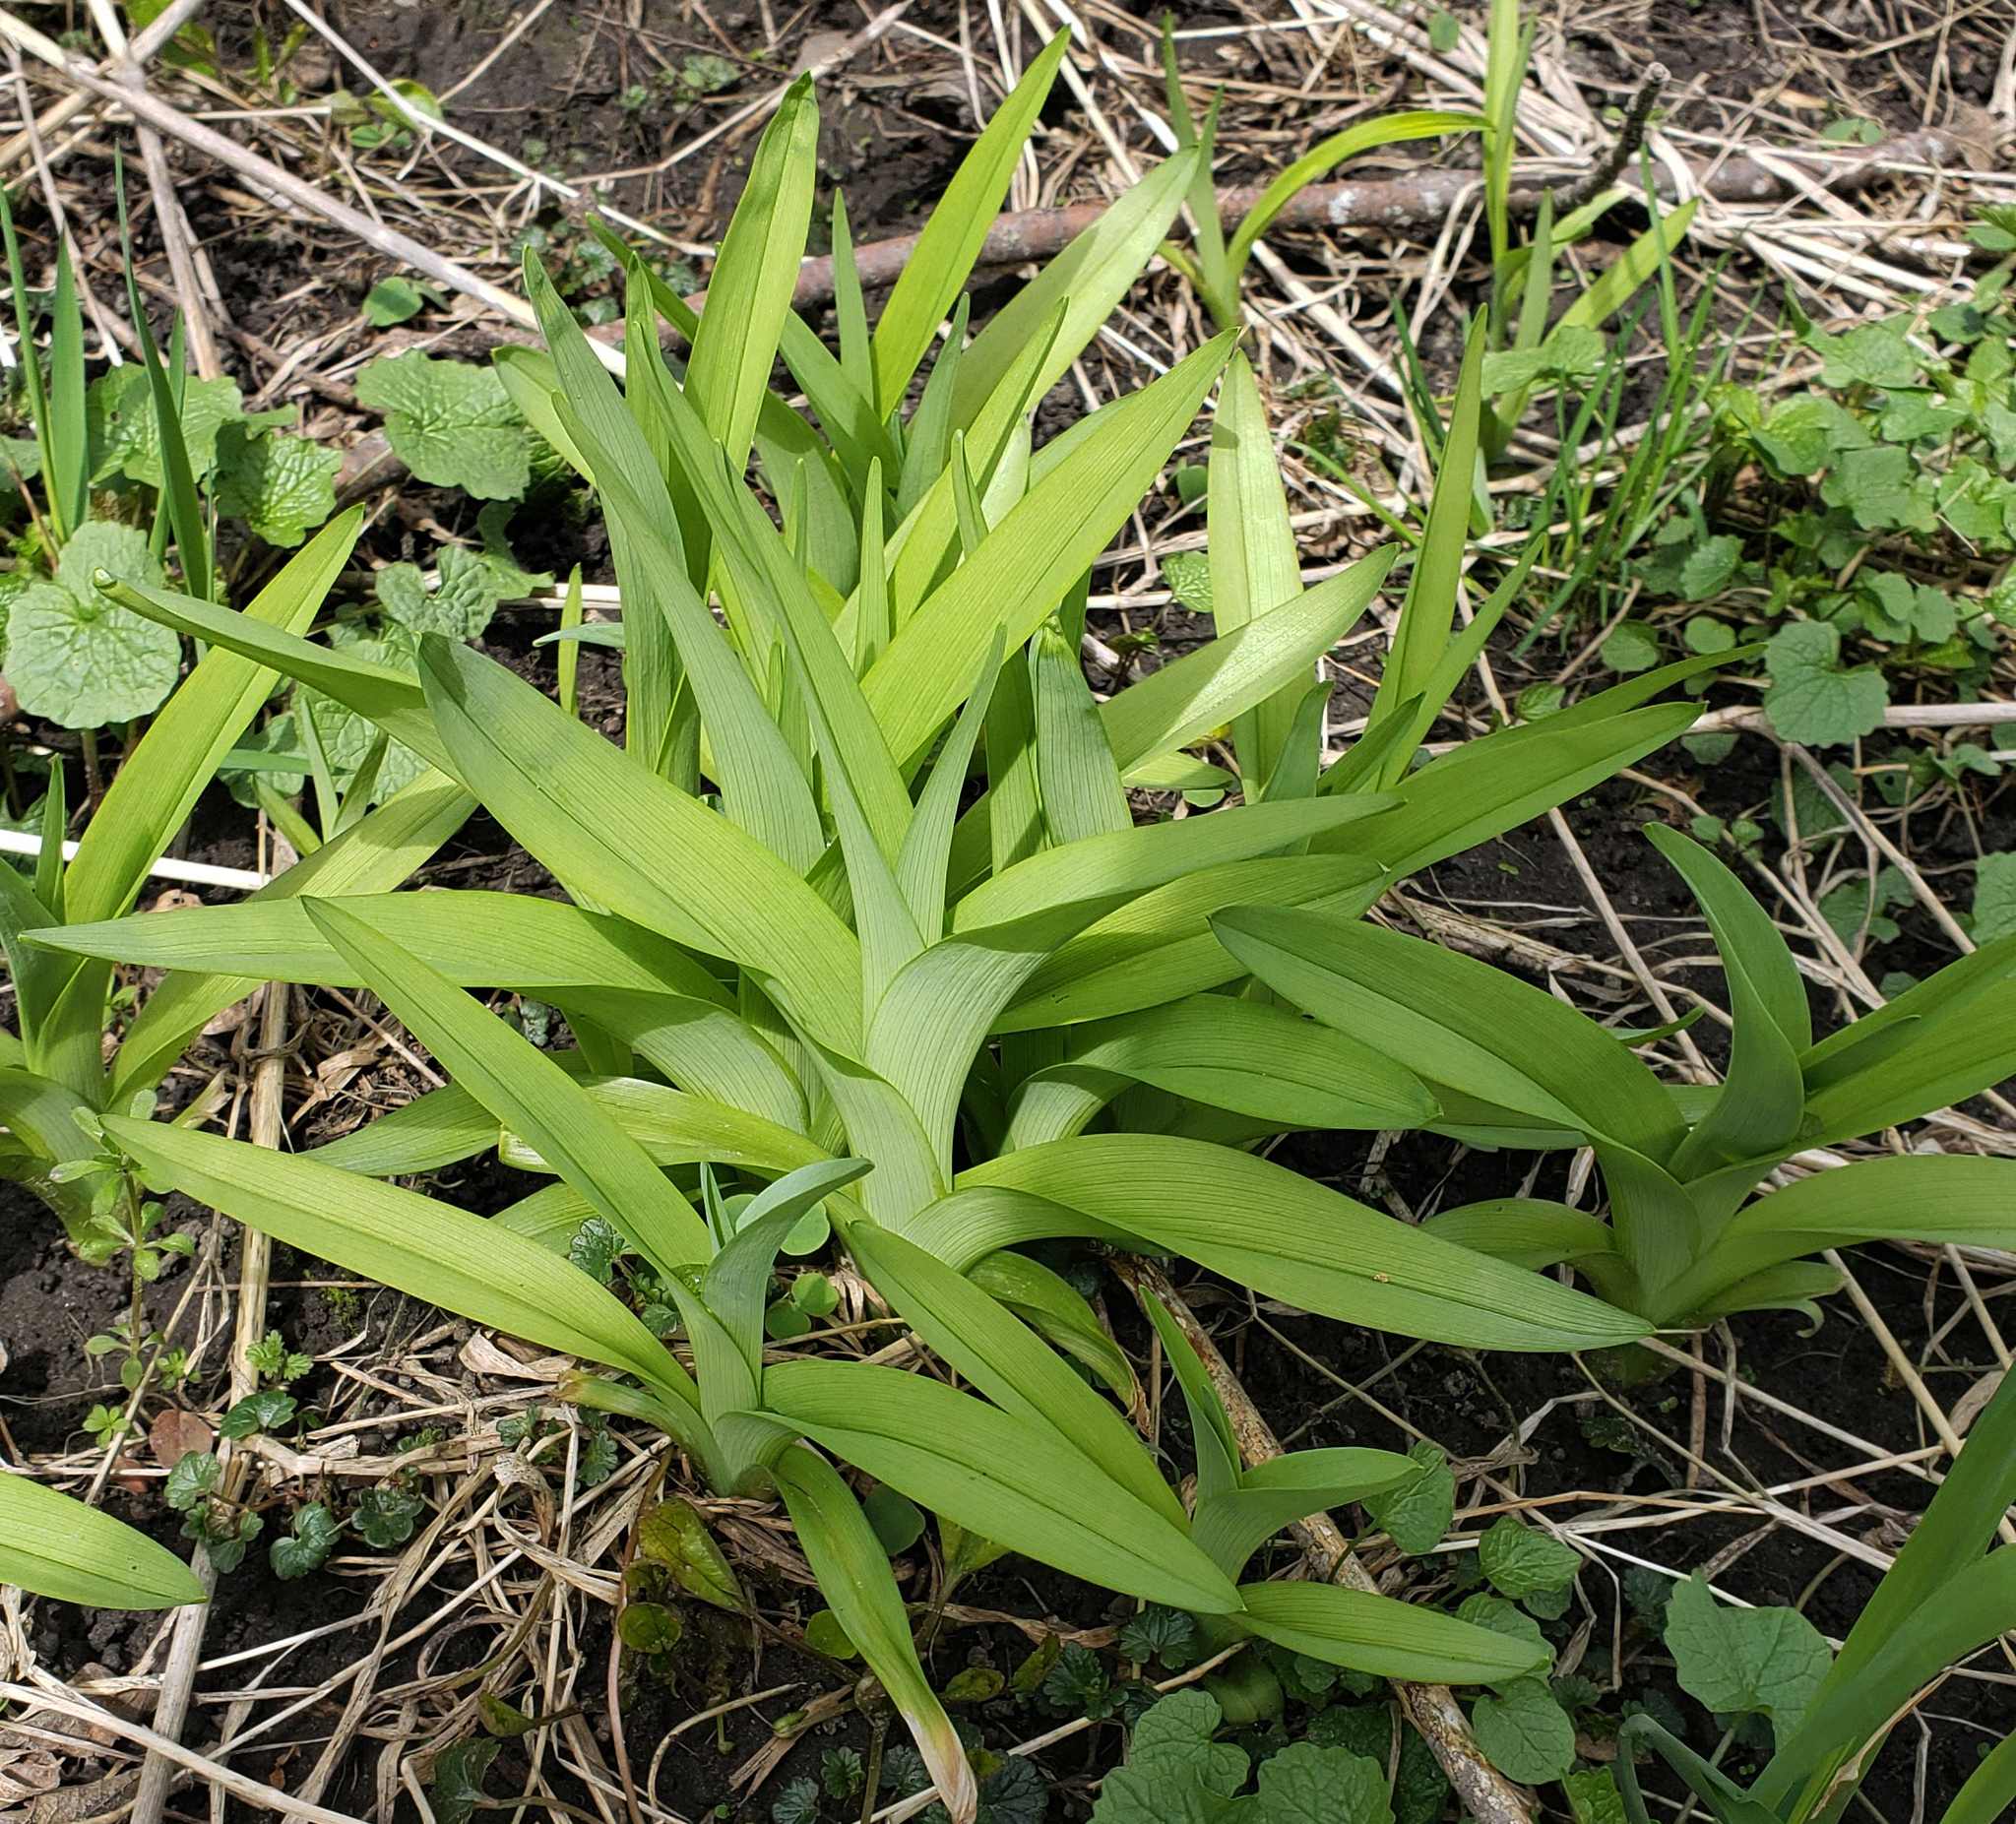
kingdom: Plantae
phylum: Tracheophyta
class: Liliopsida
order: Asparagales
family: Asphodelaceae
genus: Hemerocallis
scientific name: Hemerocallis fulva
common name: Orange day-lily
